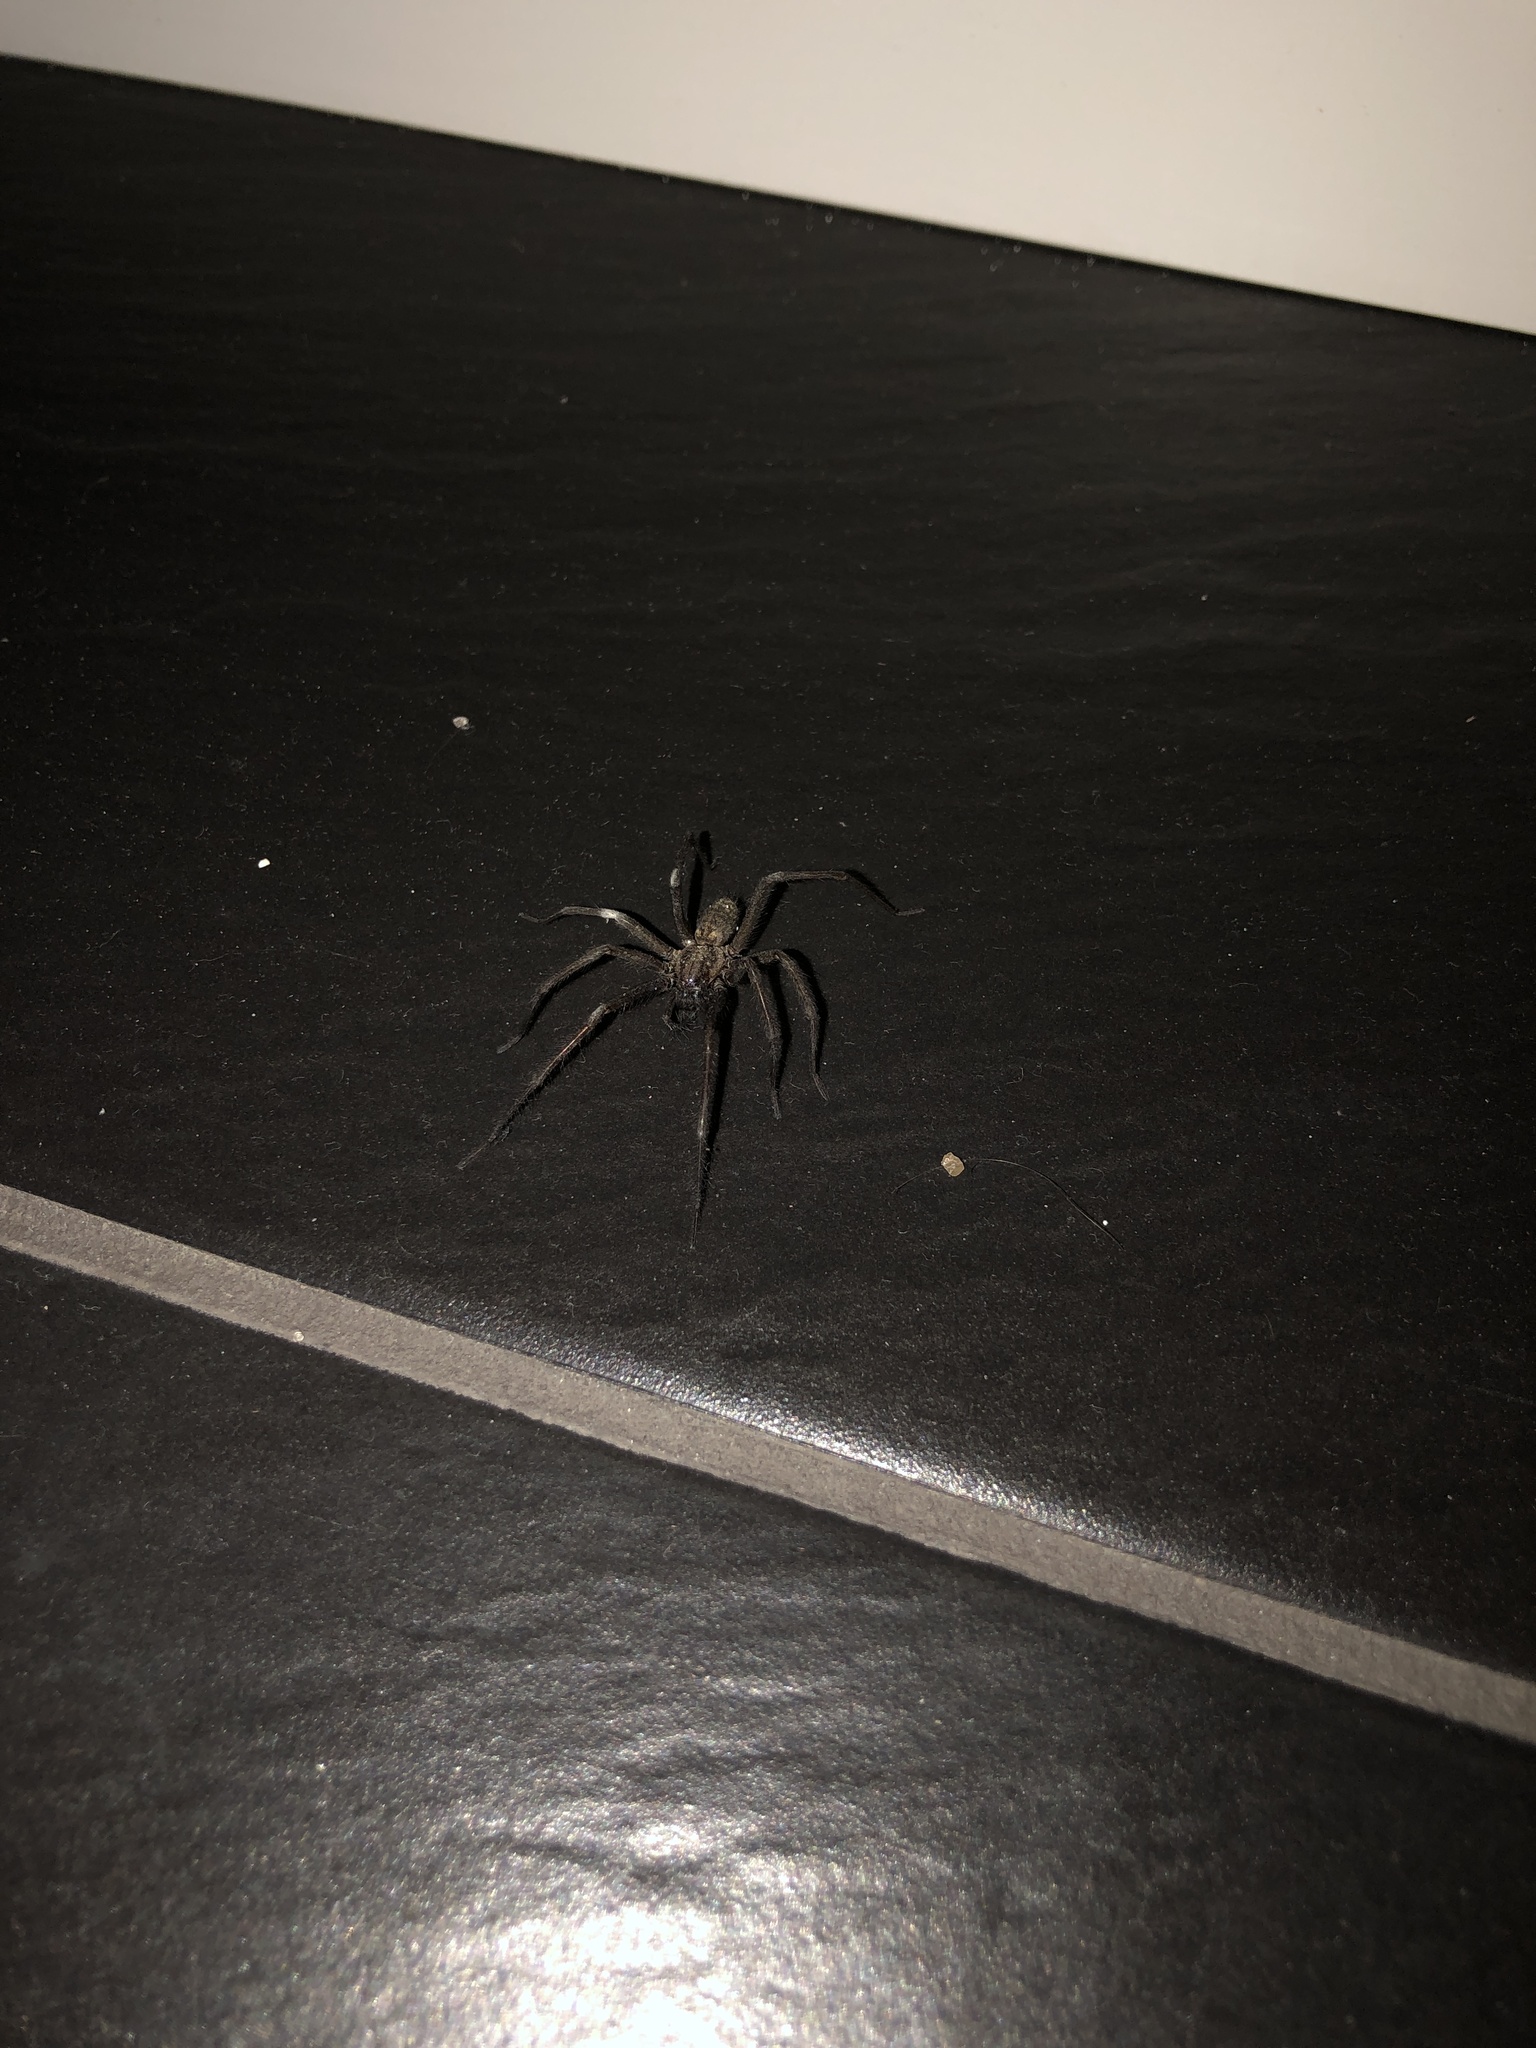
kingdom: Animalia
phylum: Arthropoda
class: Arachnida
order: Araneae
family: Agelenidae
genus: Eratigena
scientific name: Eratigena atrica
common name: Giant house spider
